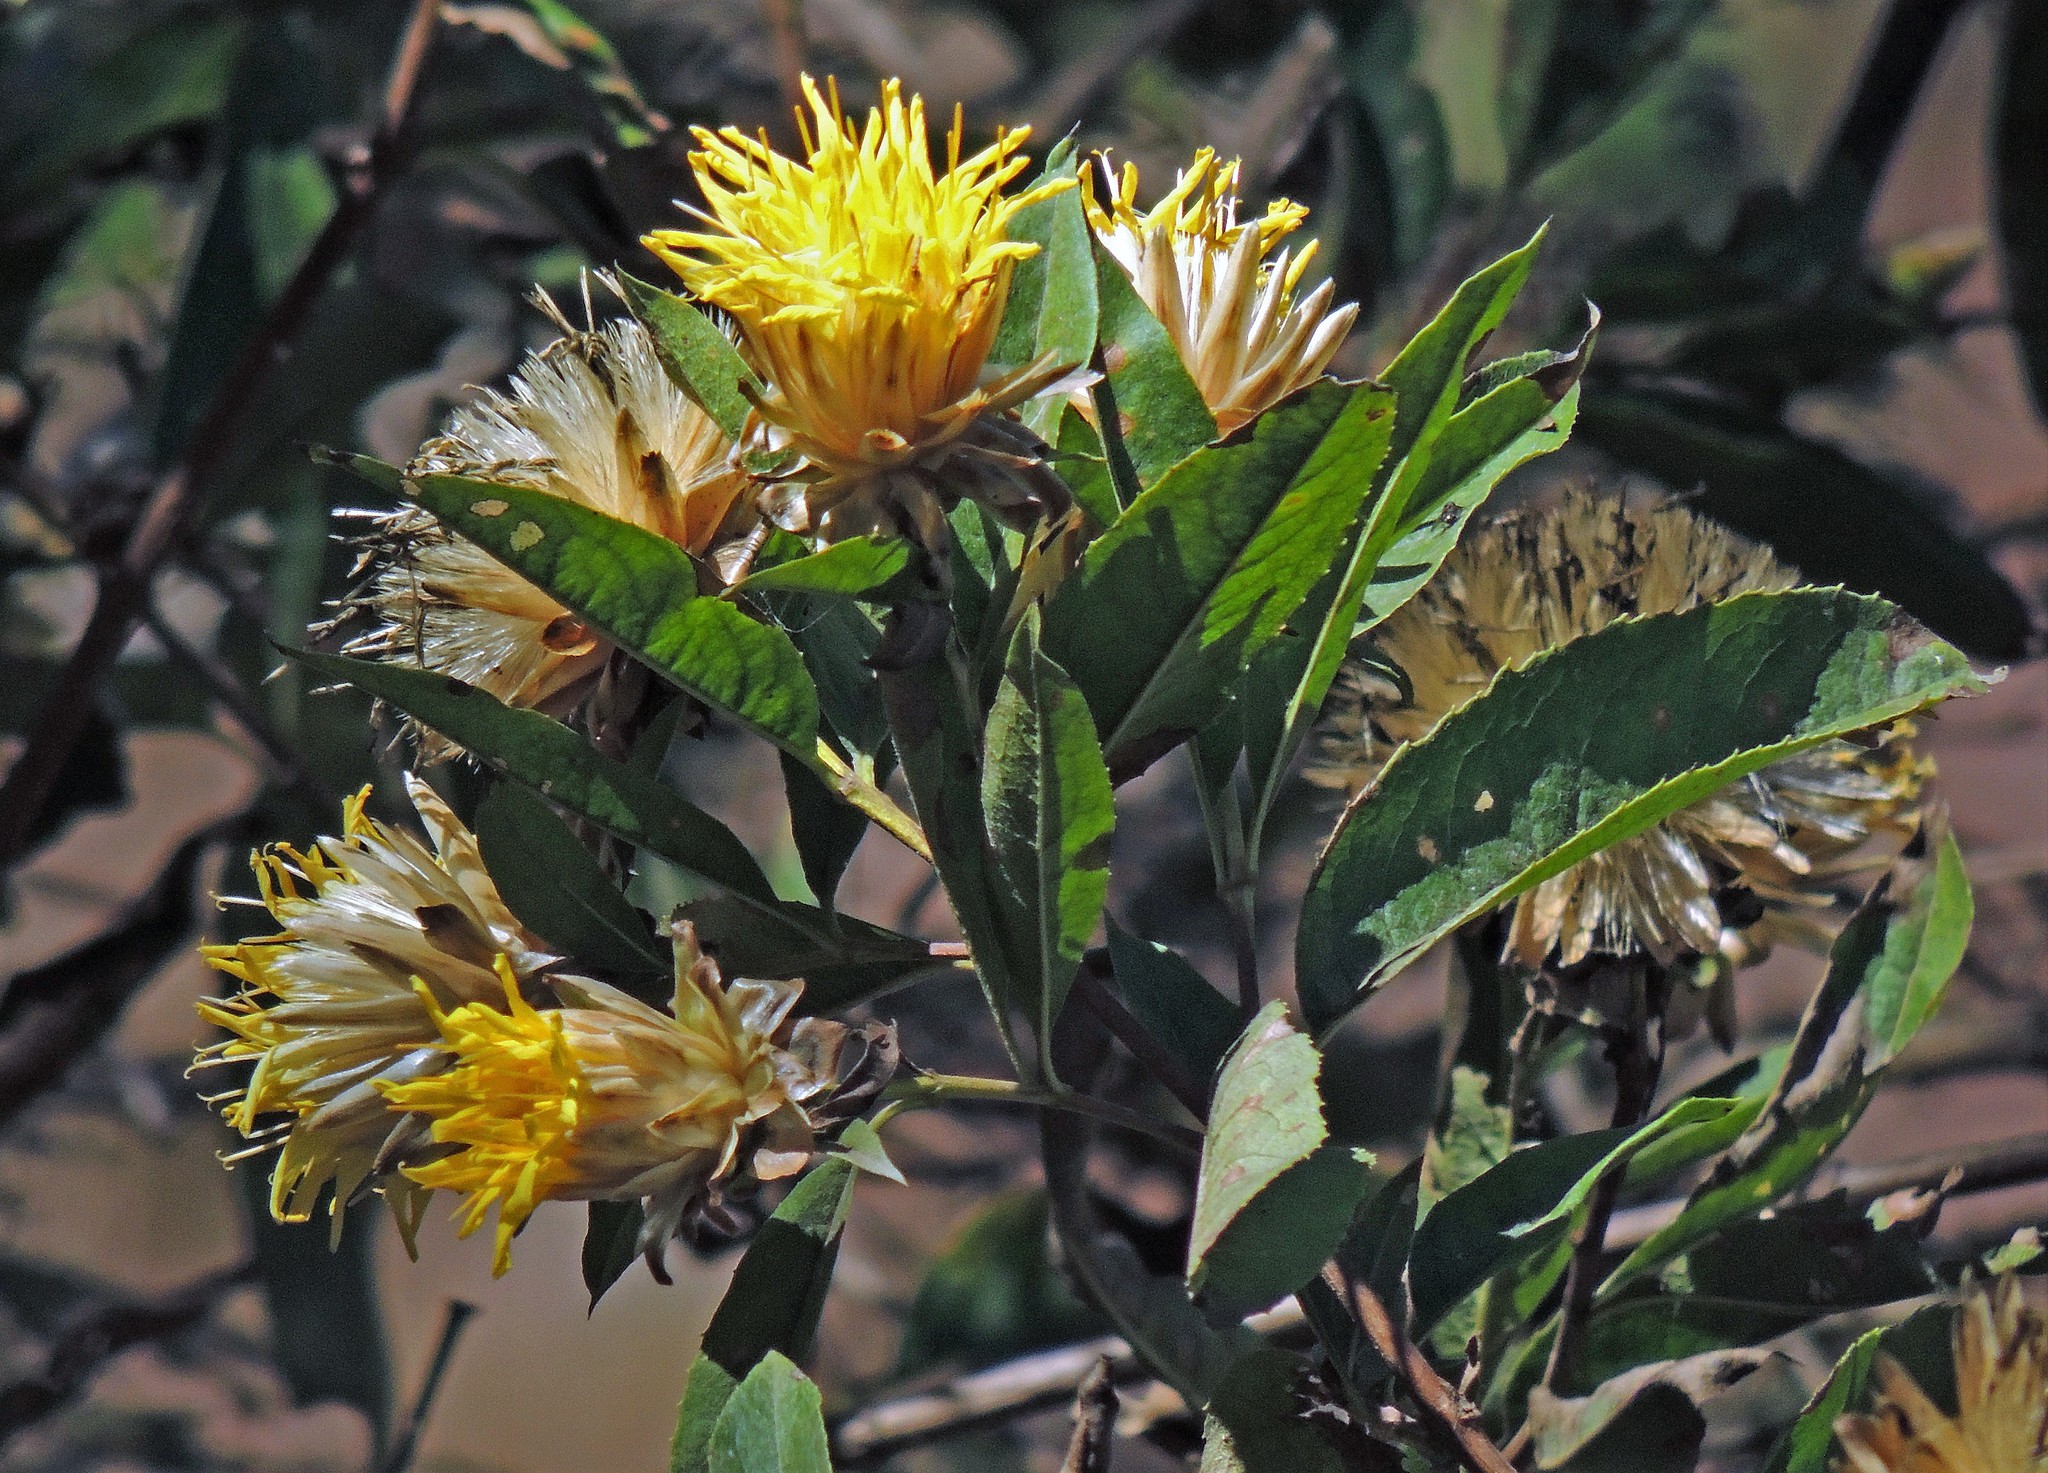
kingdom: Plantae
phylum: Tracheophyta
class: Magnoliopsida
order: Asterales
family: Asteraceae
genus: Hyaloseris
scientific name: Hyaloseris salicifolia
